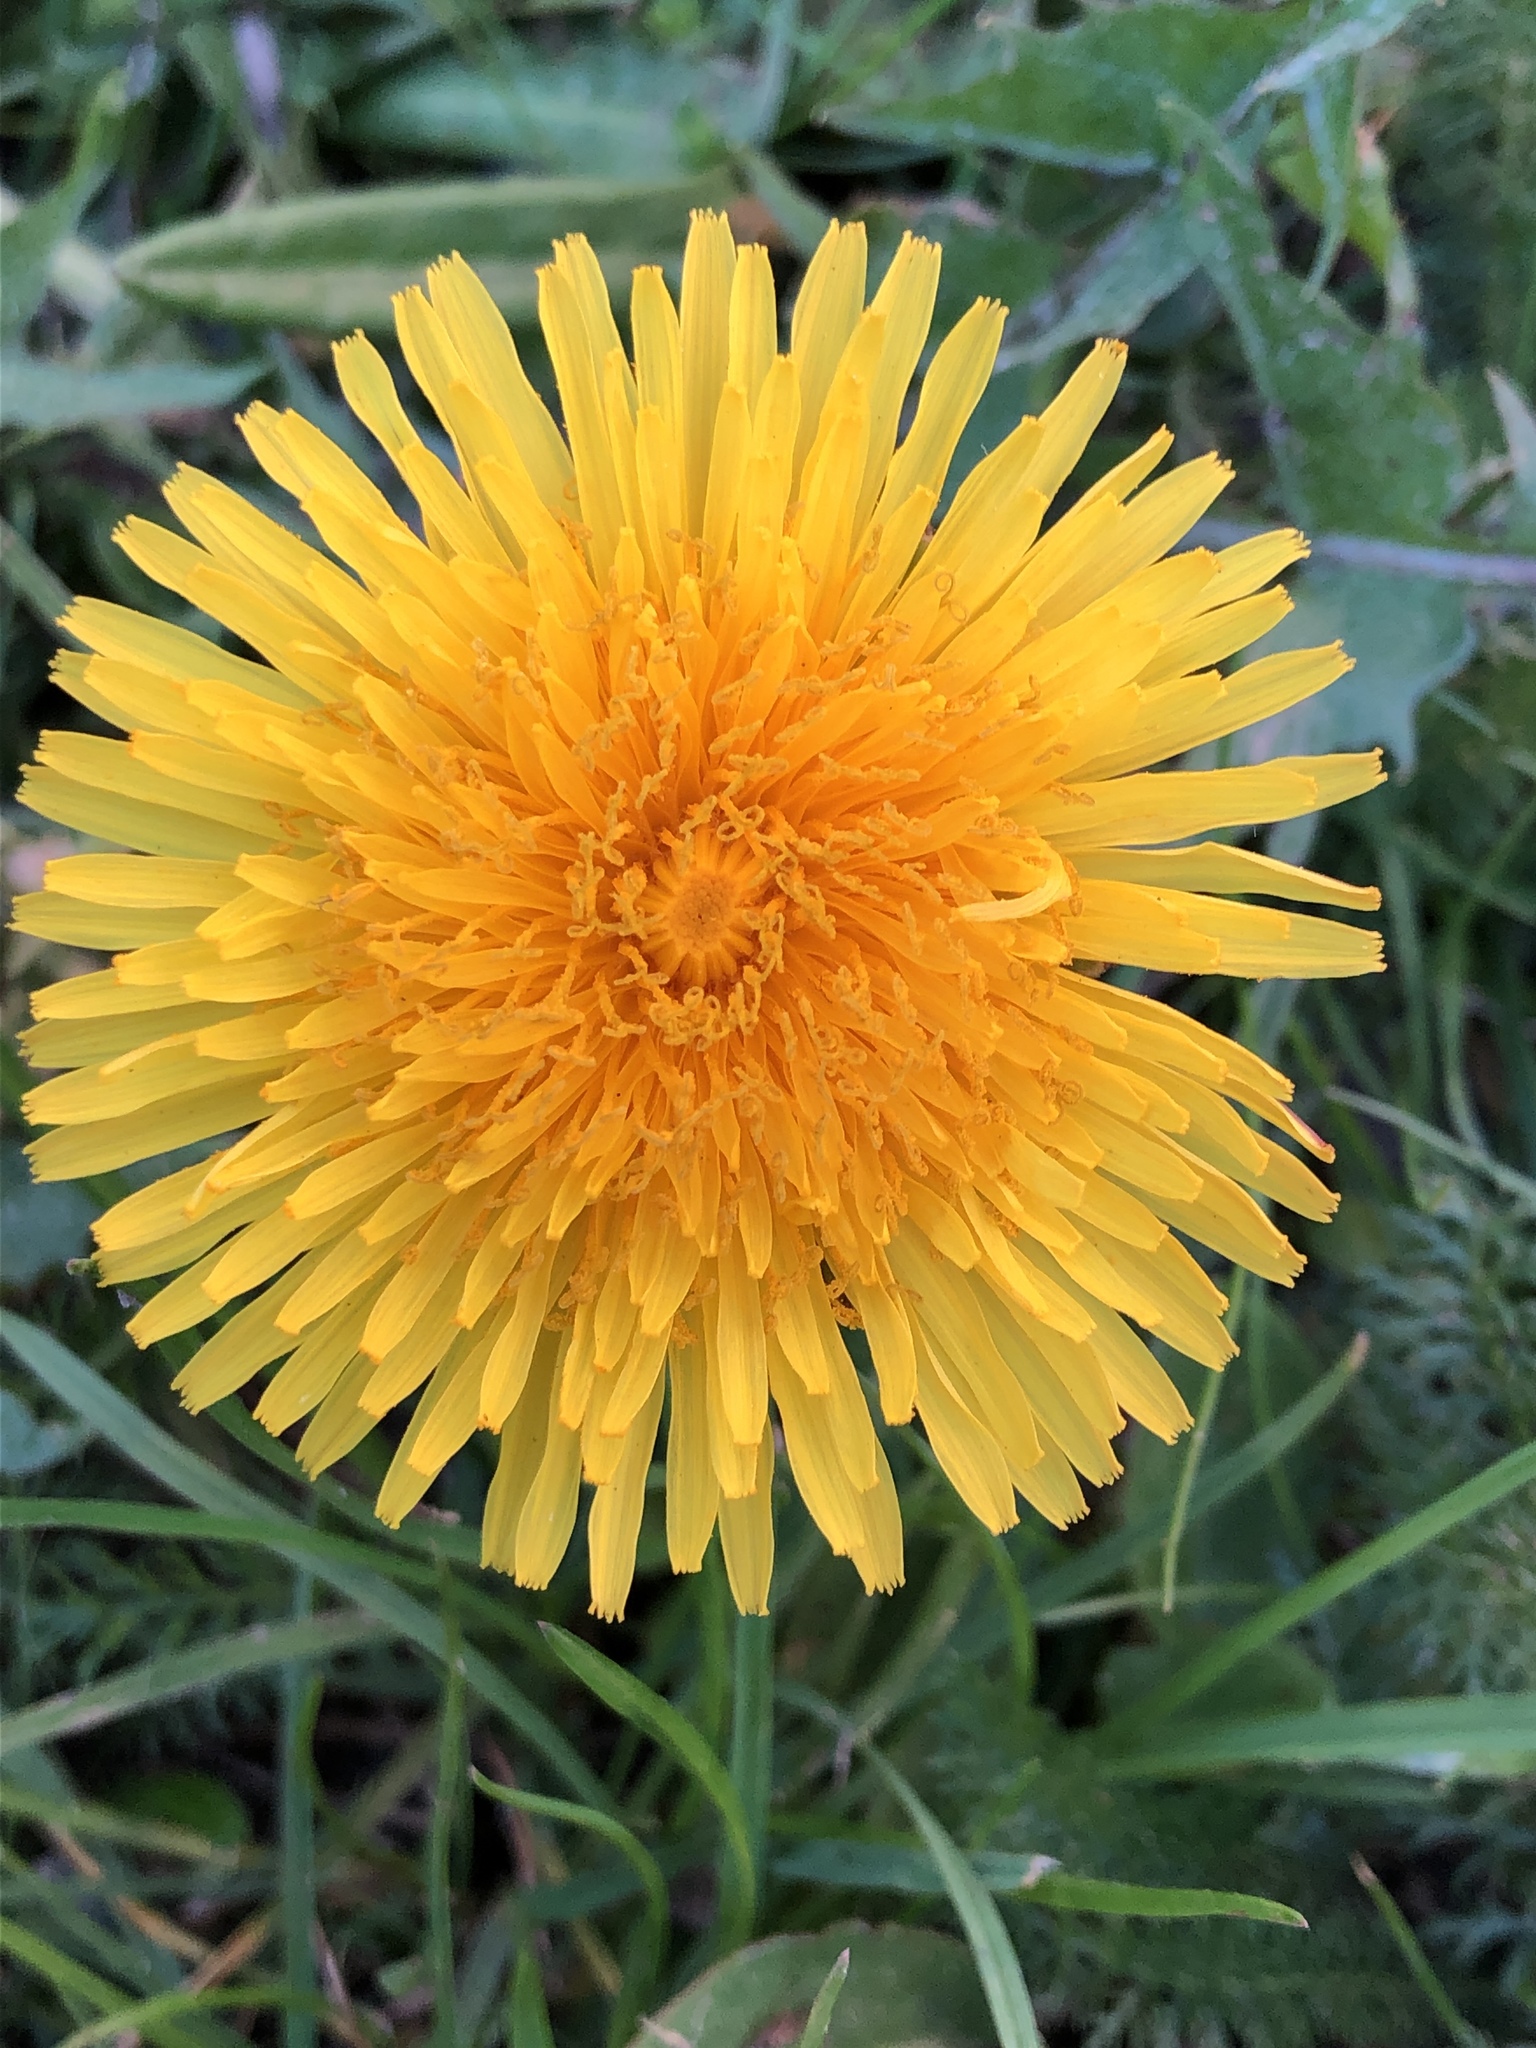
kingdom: Plantae
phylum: Tracheophyta
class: Magnoliopsida
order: Asterales
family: Asteraceae
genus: Taraxacum
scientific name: Taraxacum officinale
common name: Common dandelion
